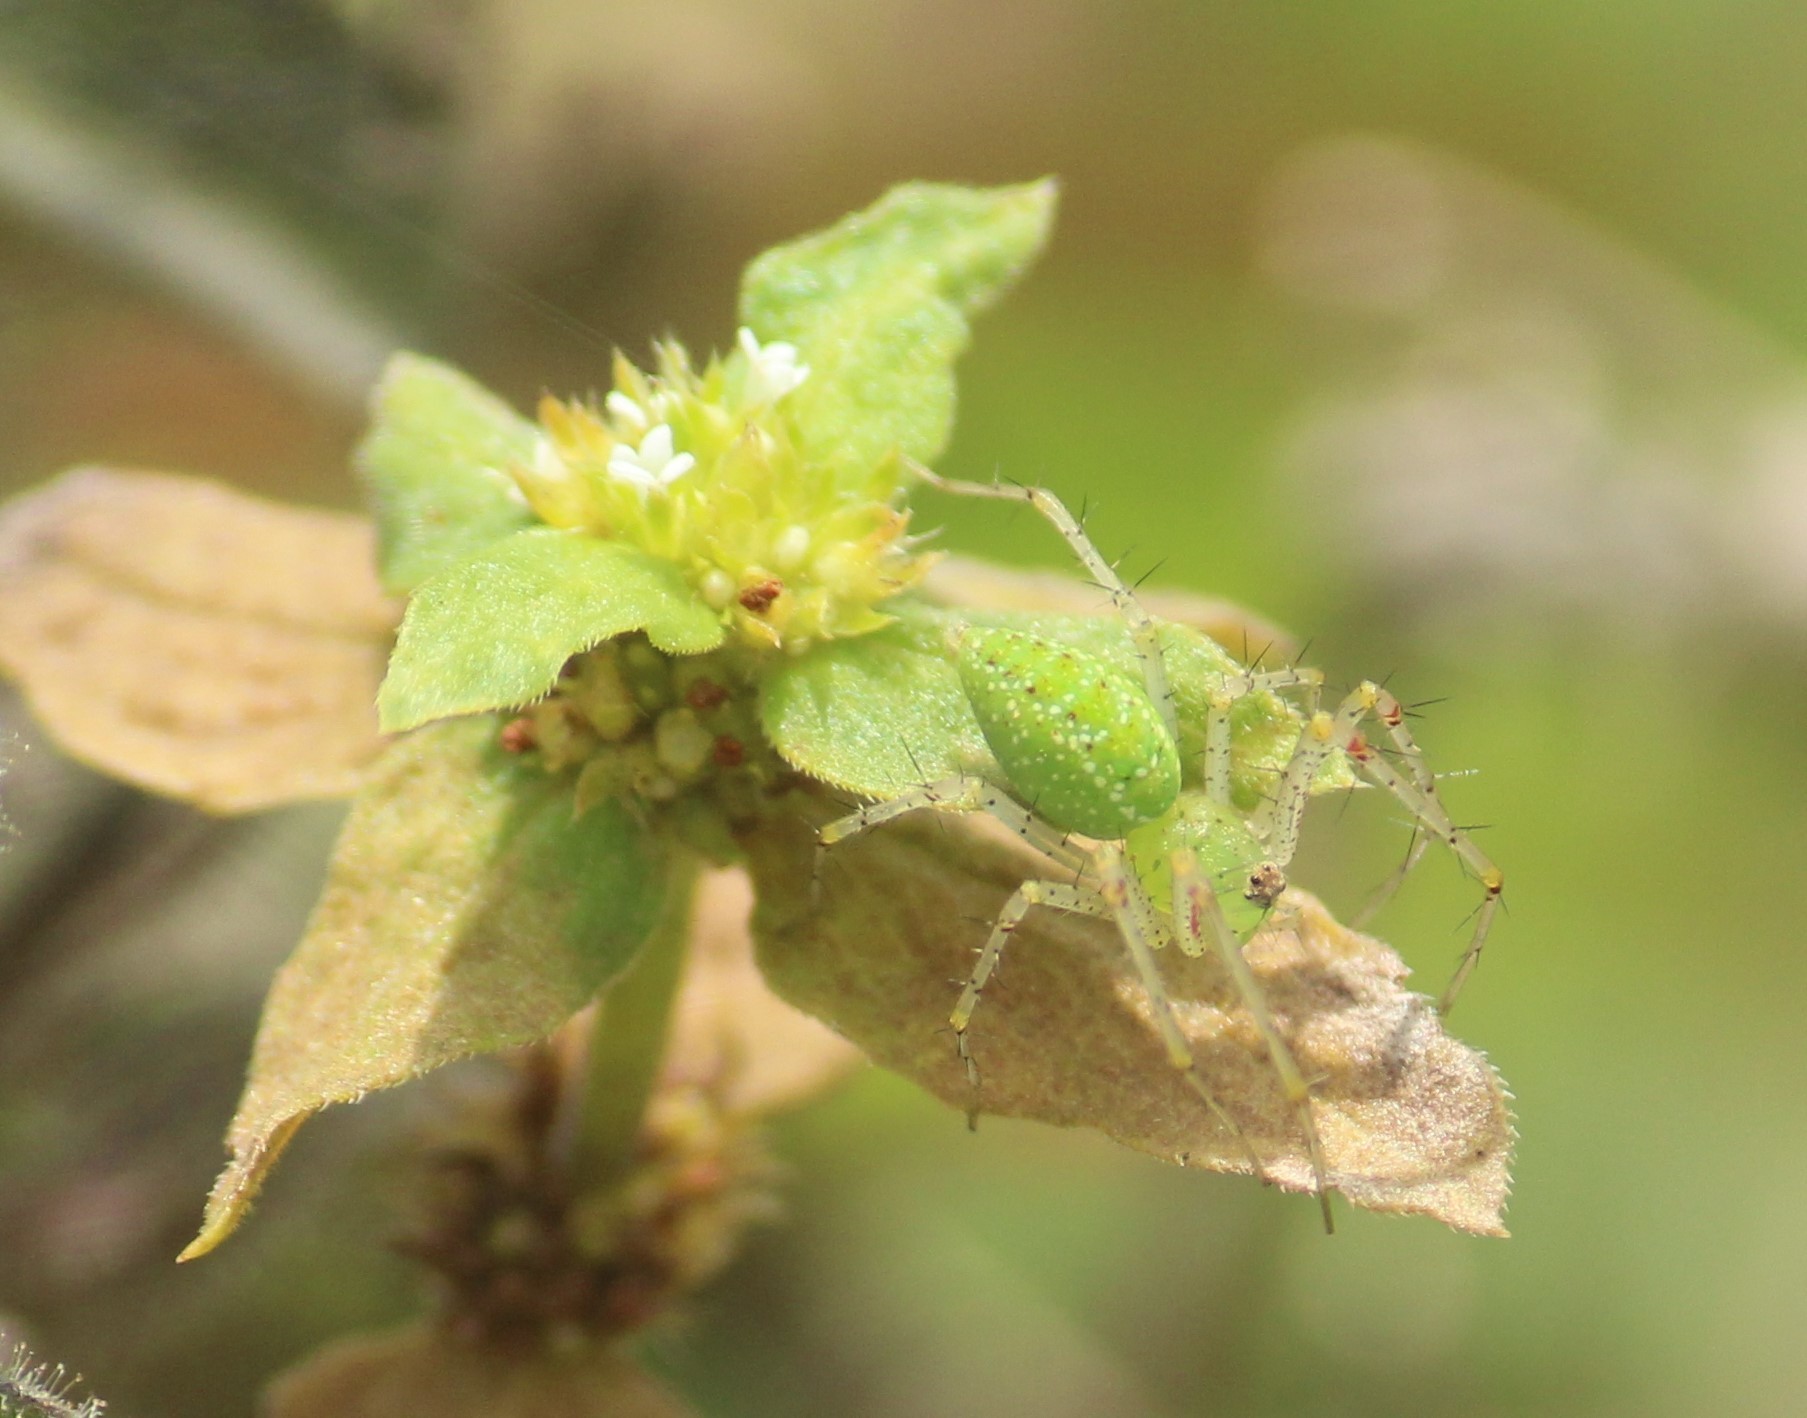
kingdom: Animalia
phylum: Arthropoda
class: Arachnida
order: Araneae
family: Oxyopidae
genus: Peucetia
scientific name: Peucetia viridana
